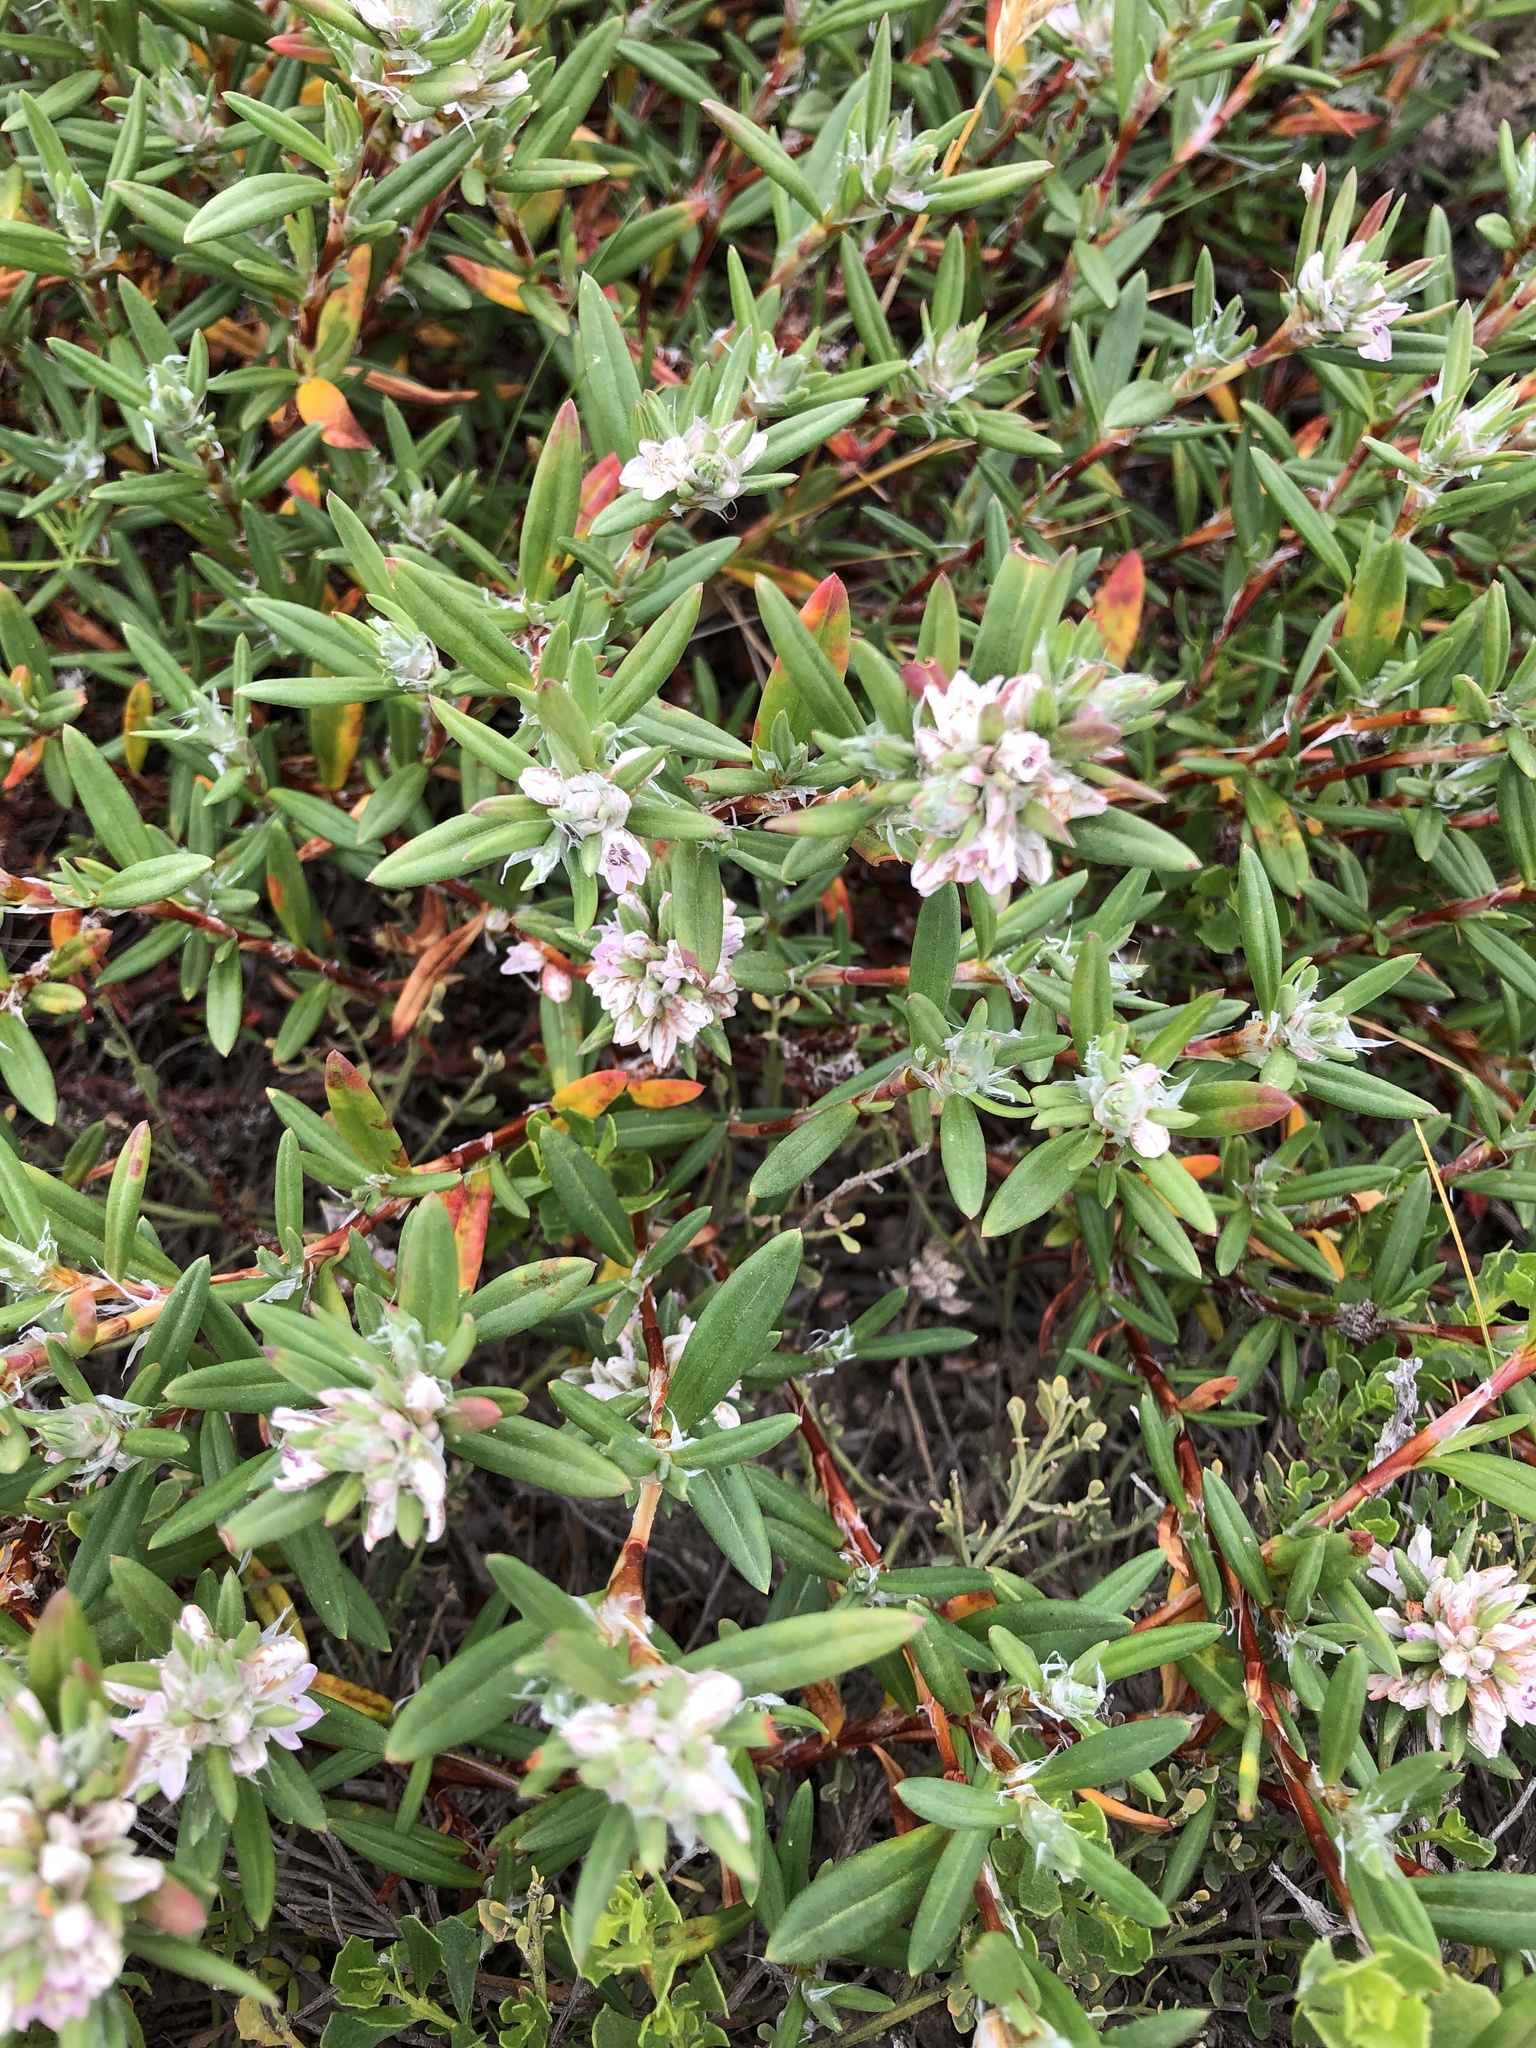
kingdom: Plantae
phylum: Tracheophyta
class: Magnoliopsida
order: Caryophyllales
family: Polygonaceae
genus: Polygonum
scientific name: Polygonum paronychia
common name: Dune knotweed
